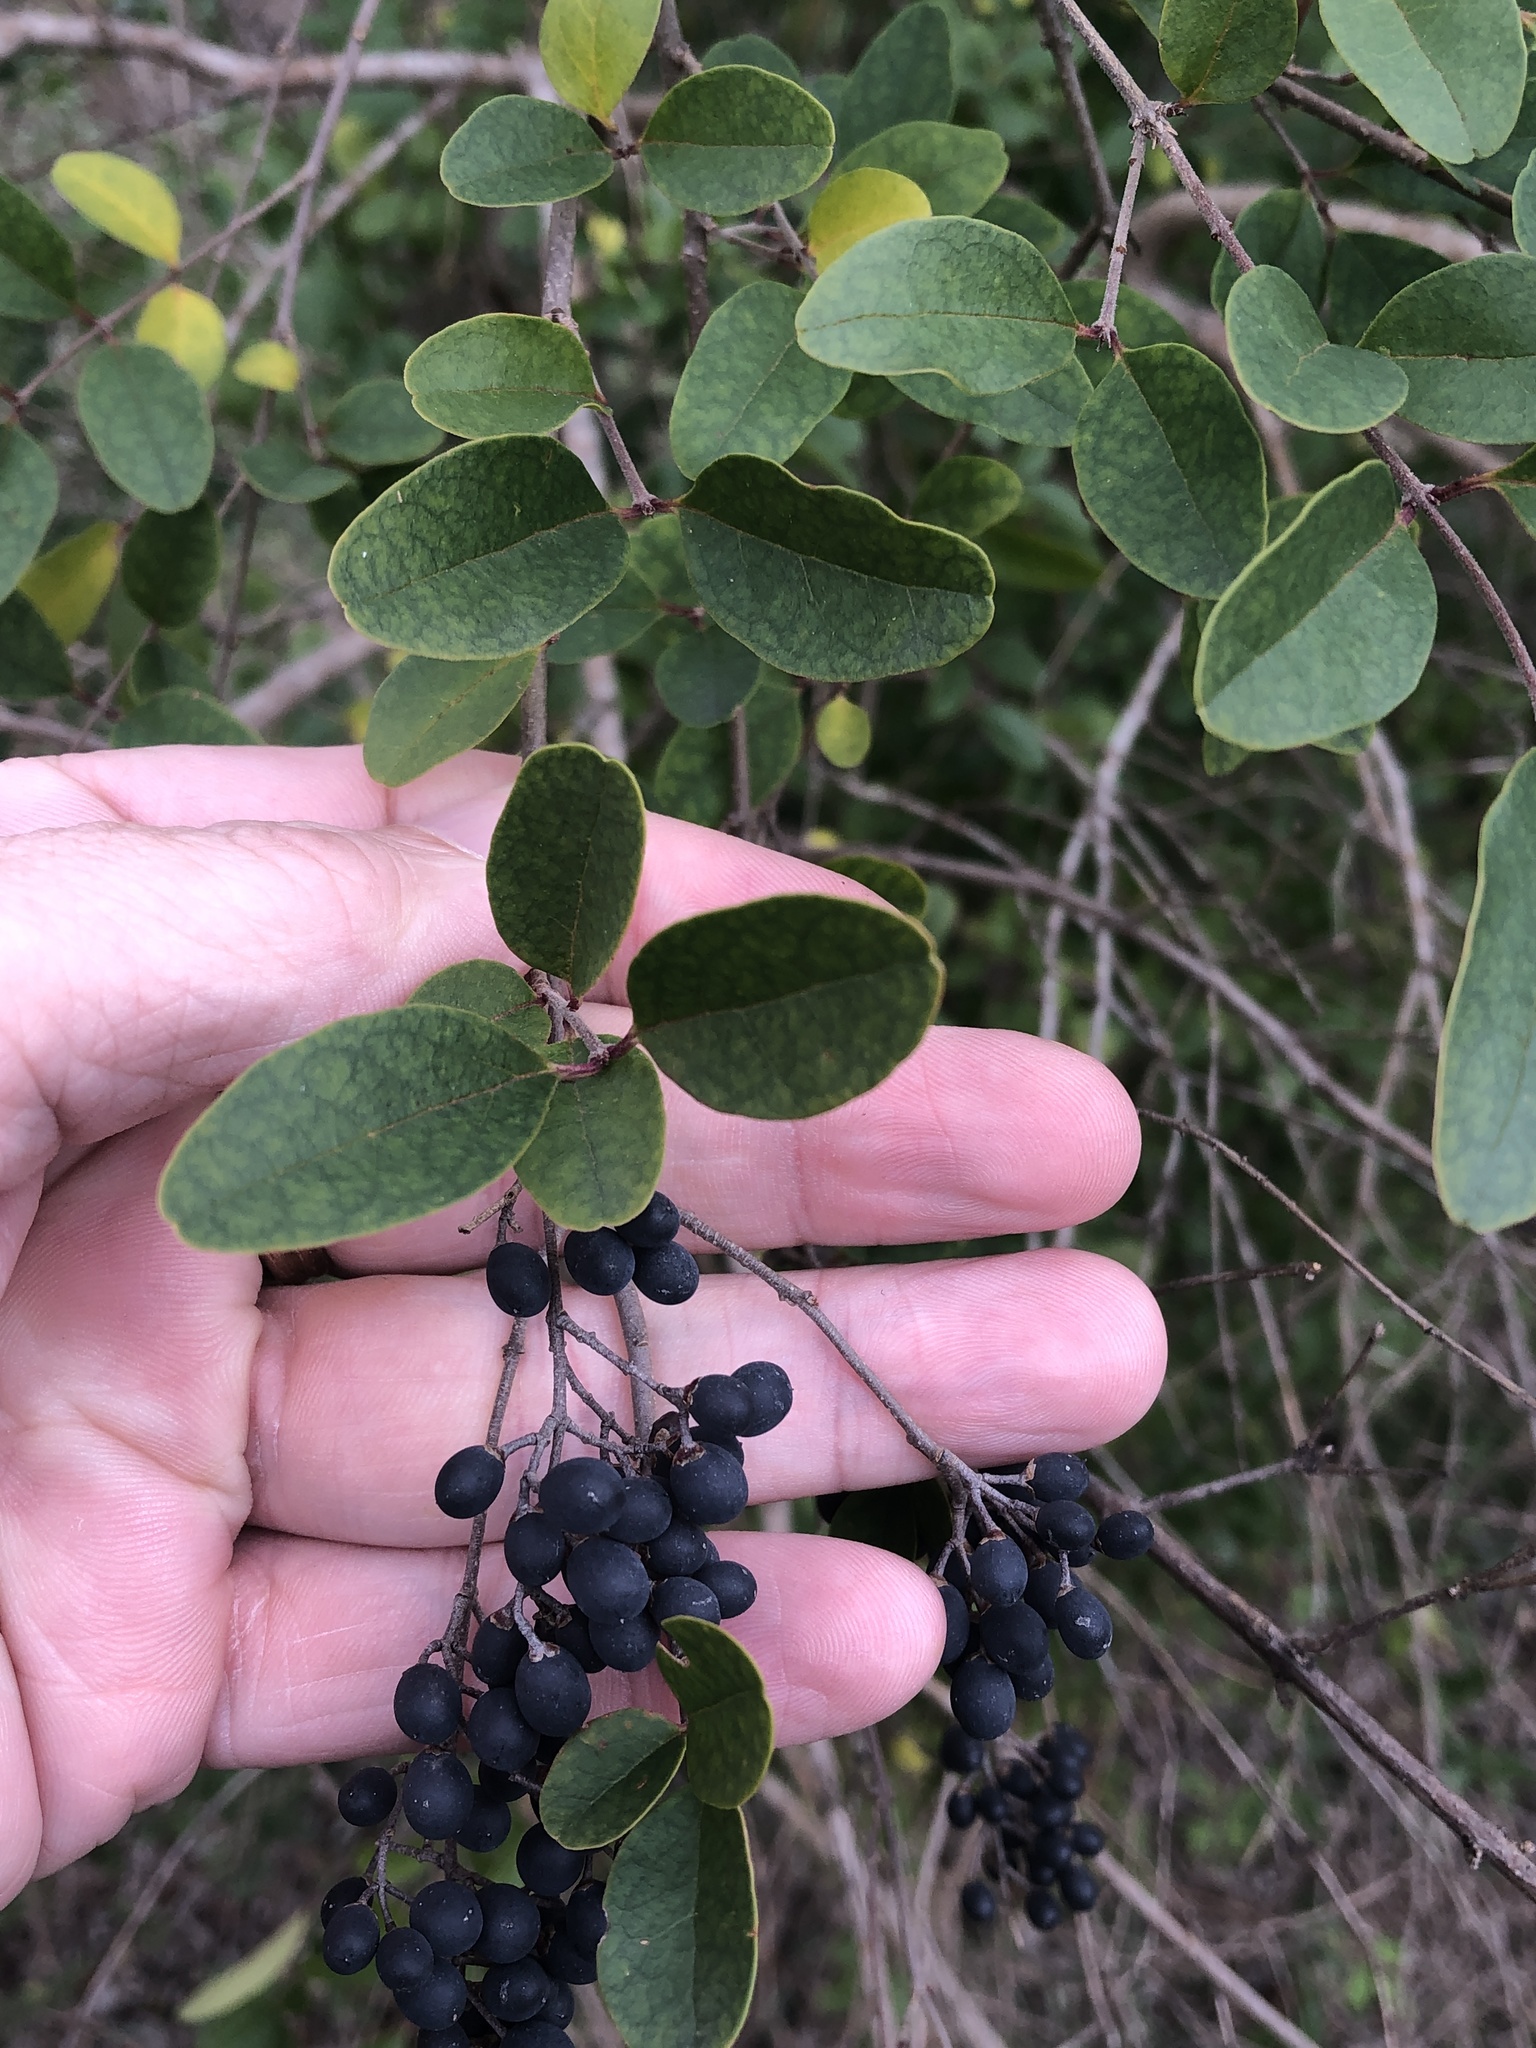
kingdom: Plantae
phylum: Tracheophyta
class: Magnoliopsida
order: Lamiales
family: Oleaceae
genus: Ligustrum
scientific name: Ligustrum sinense
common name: Chinese privet
